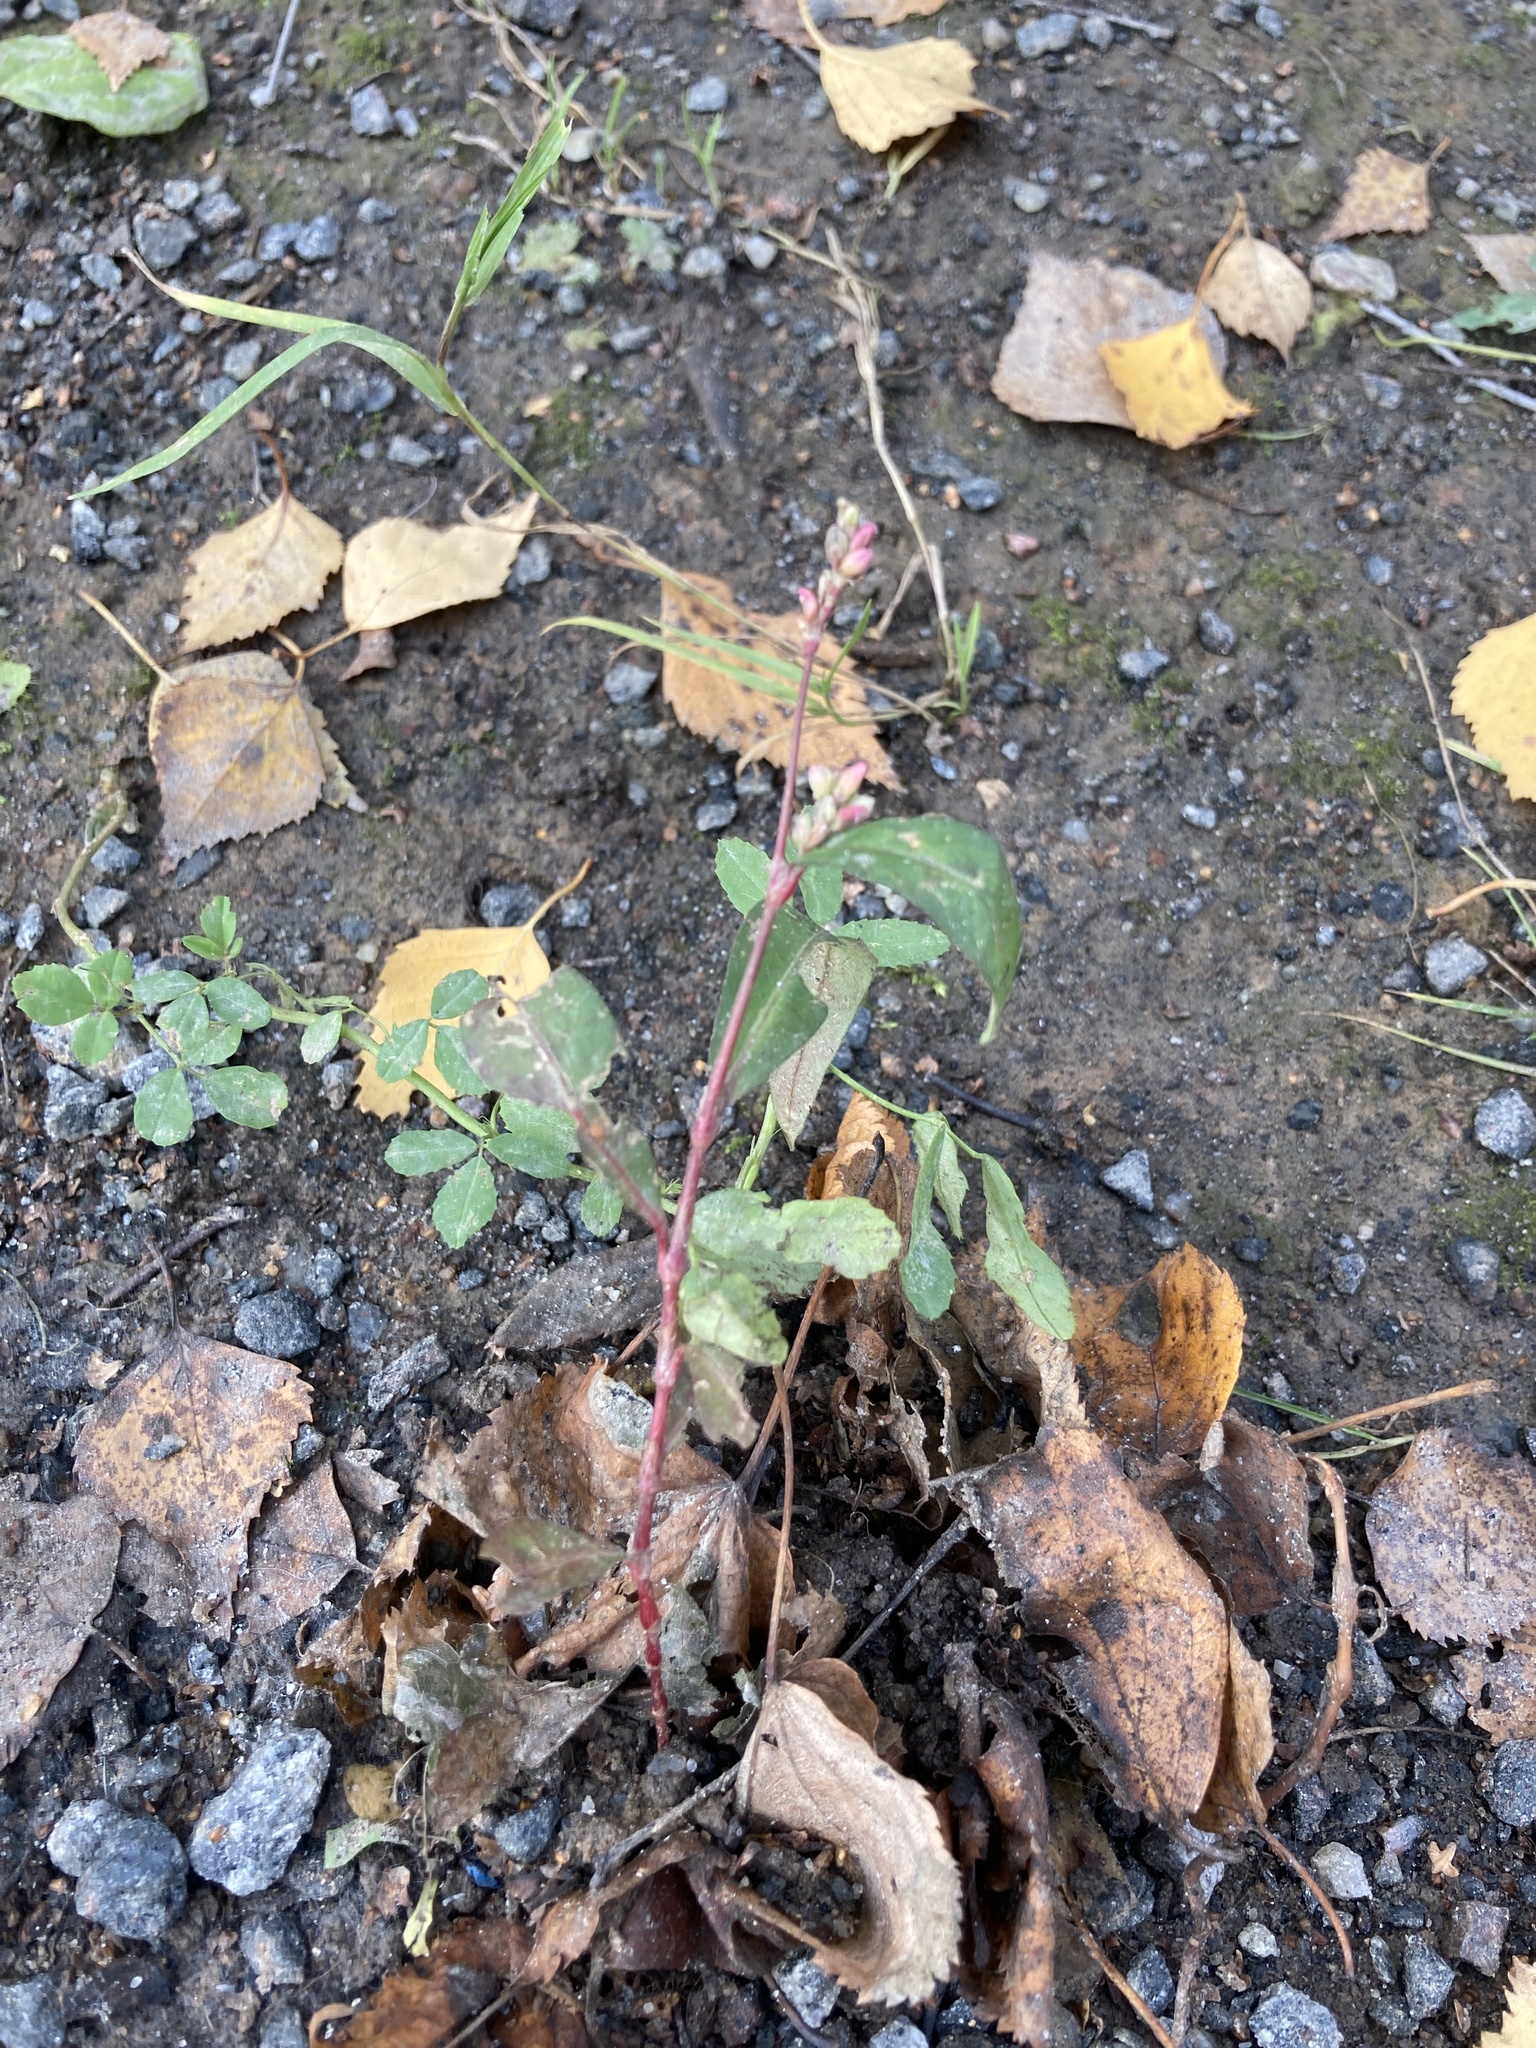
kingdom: Plantae
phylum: Tracheophyta
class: Magnoliopsida
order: Caryophyllales
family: Polygonaceae
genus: Persicaria
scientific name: Persicaria maculosa
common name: Redshank
